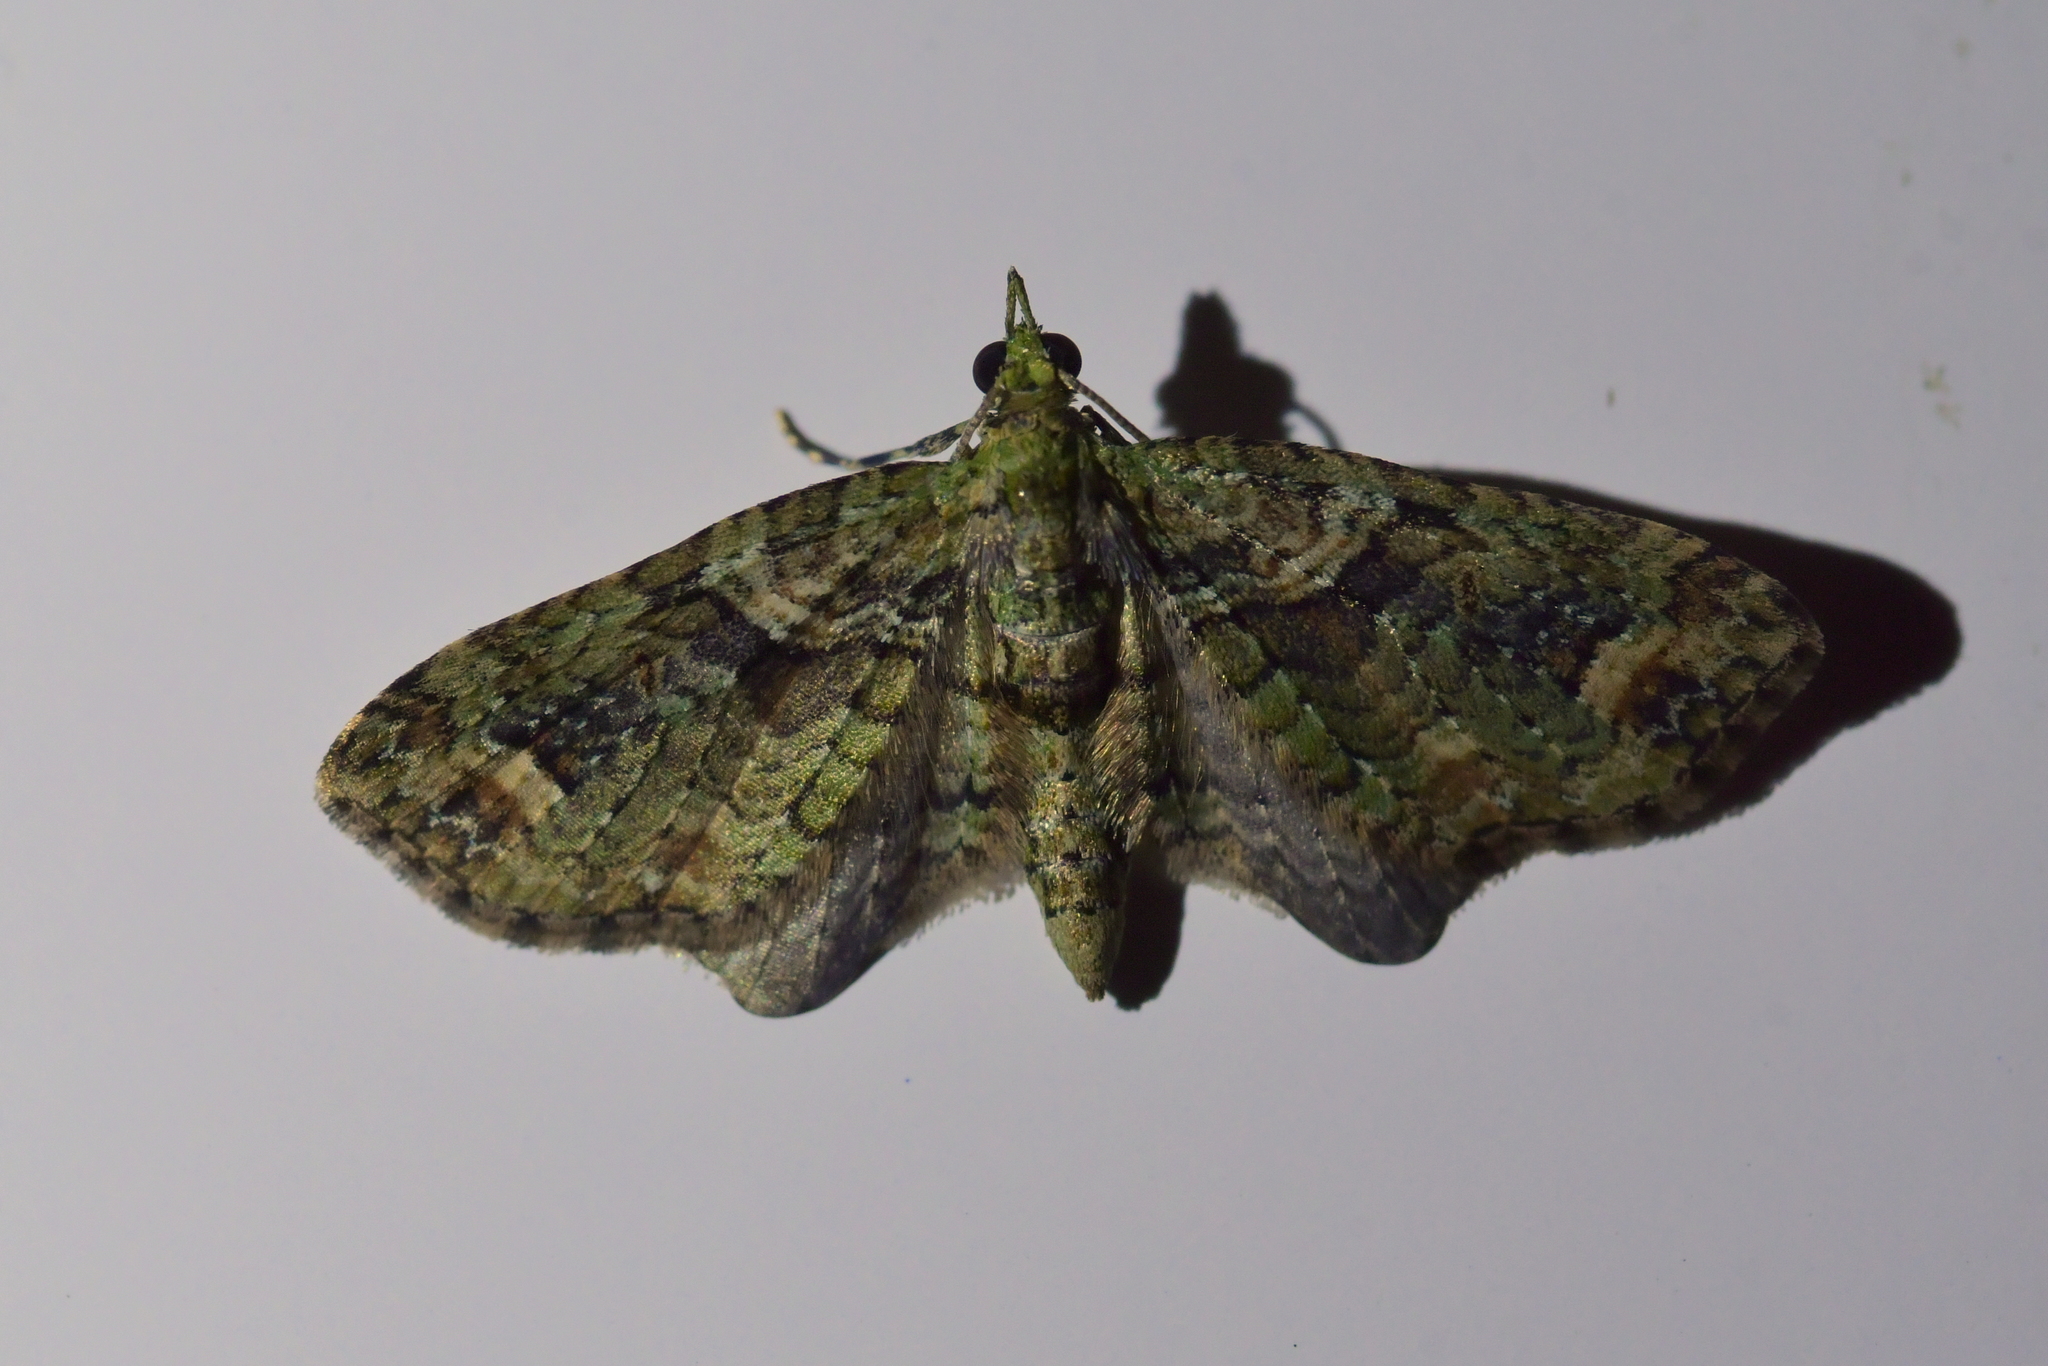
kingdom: Animalia
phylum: Arthropoda
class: Insecta
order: Lepidoptera
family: Geometridae
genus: Idaea
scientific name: Idaea mutanda
